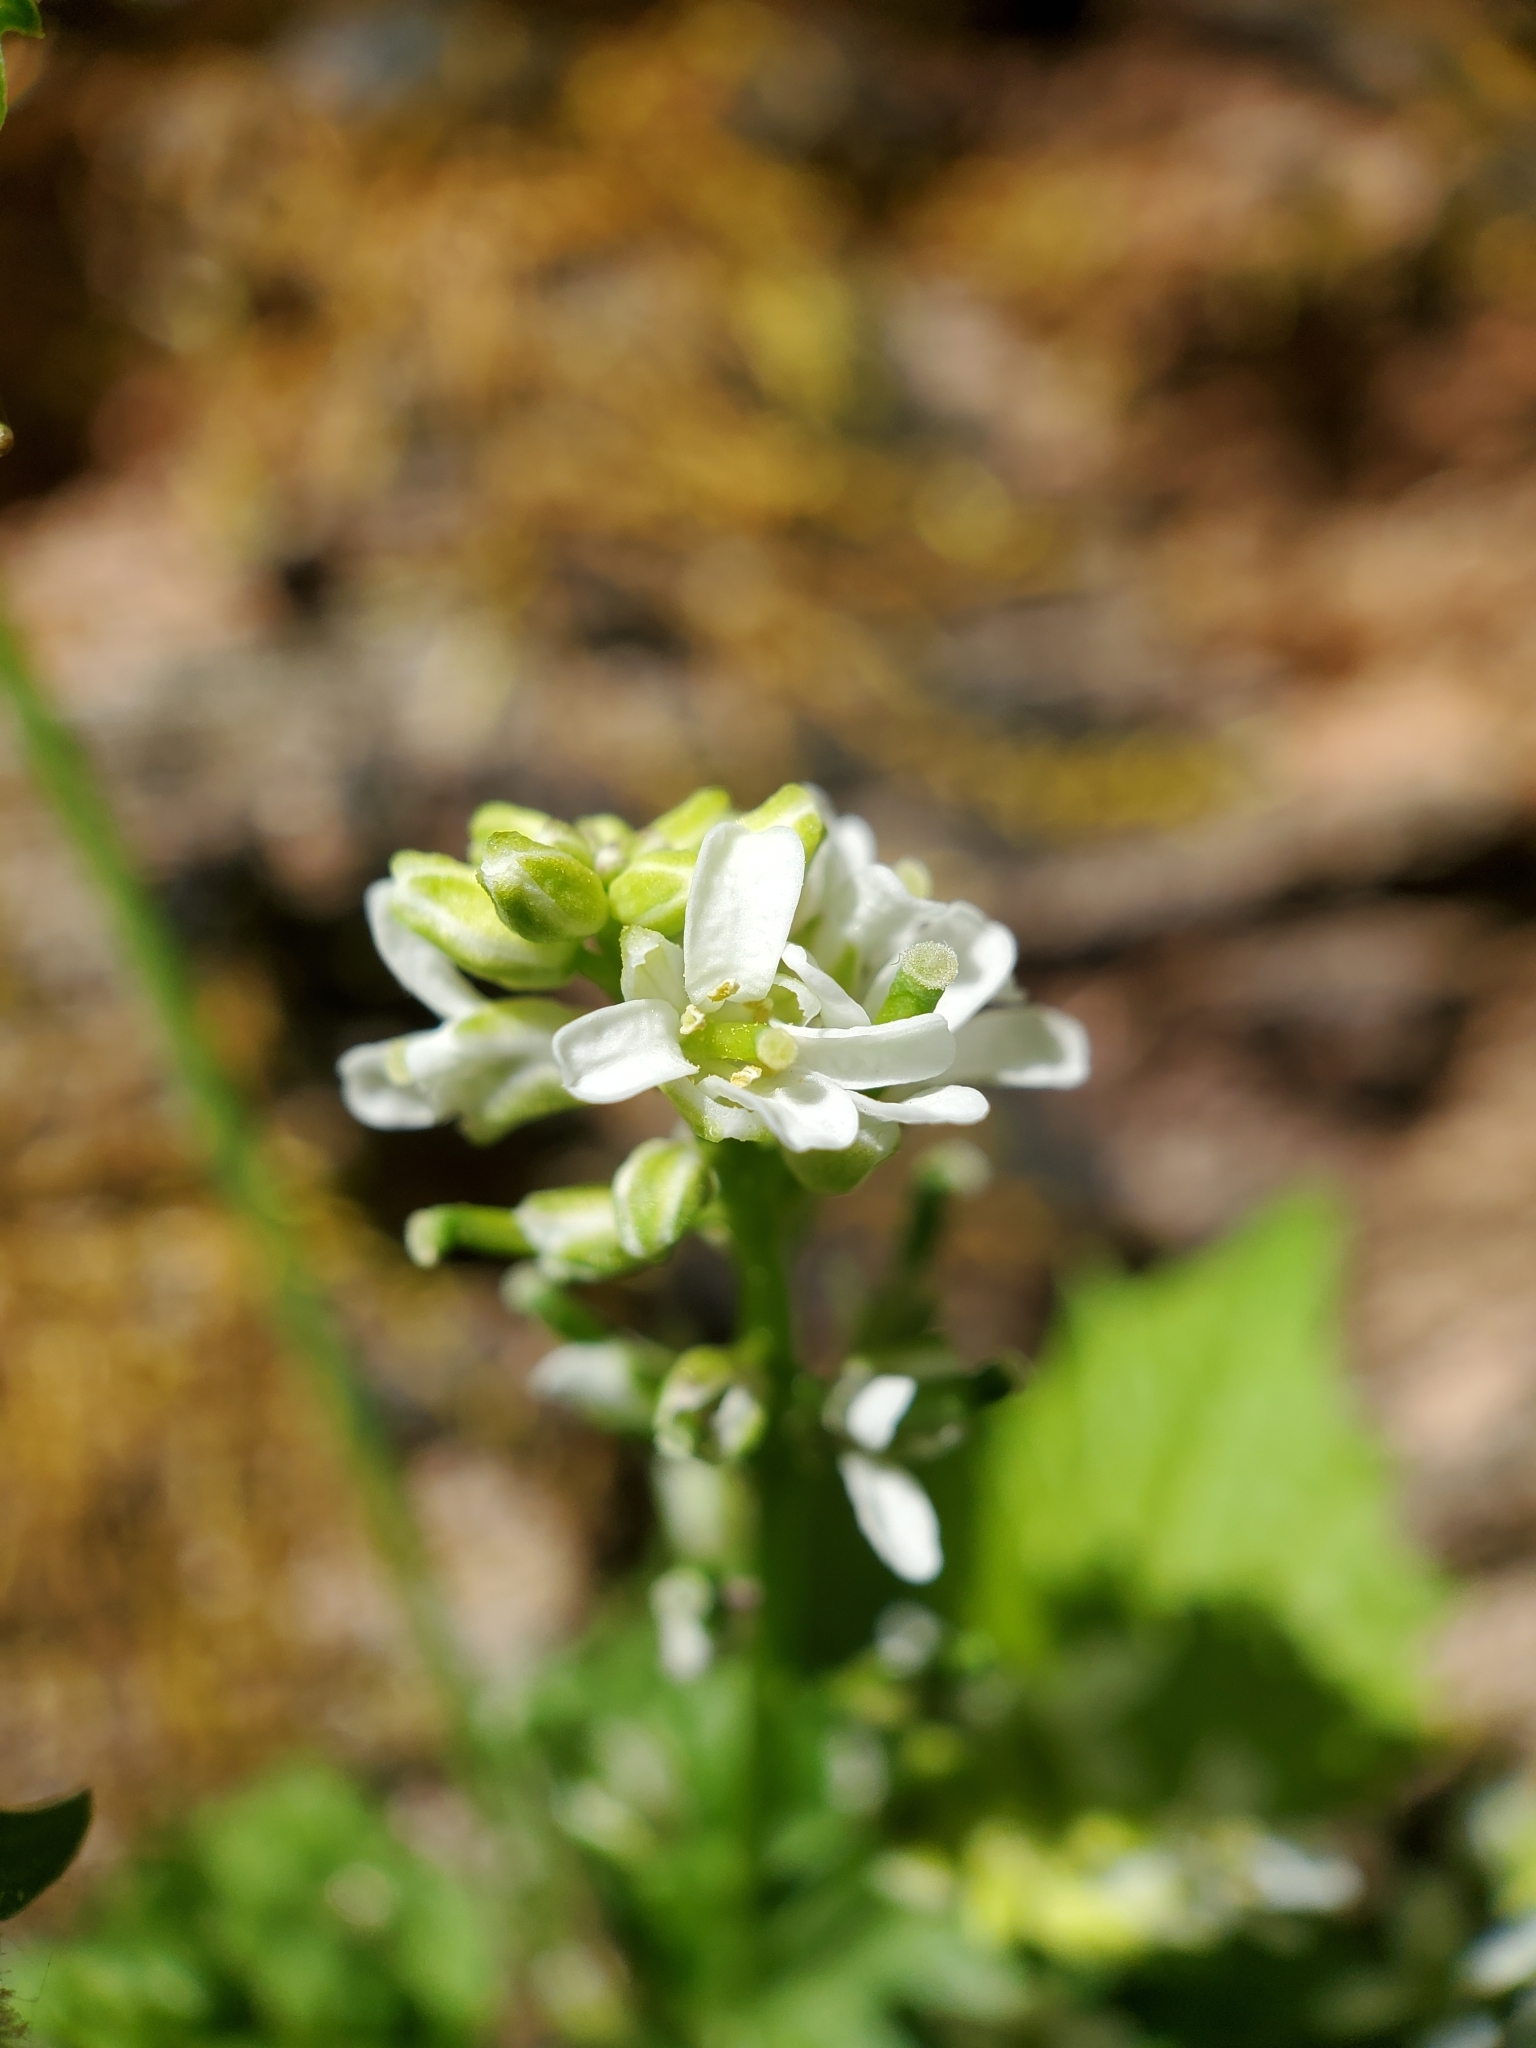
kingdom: Plantae
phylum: Tracheophyta
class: Magnoliopsida
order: Brassicales
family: Brassicaceae
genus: Alliaria
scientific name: Alliaria petiolata
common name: Garlic mustard
